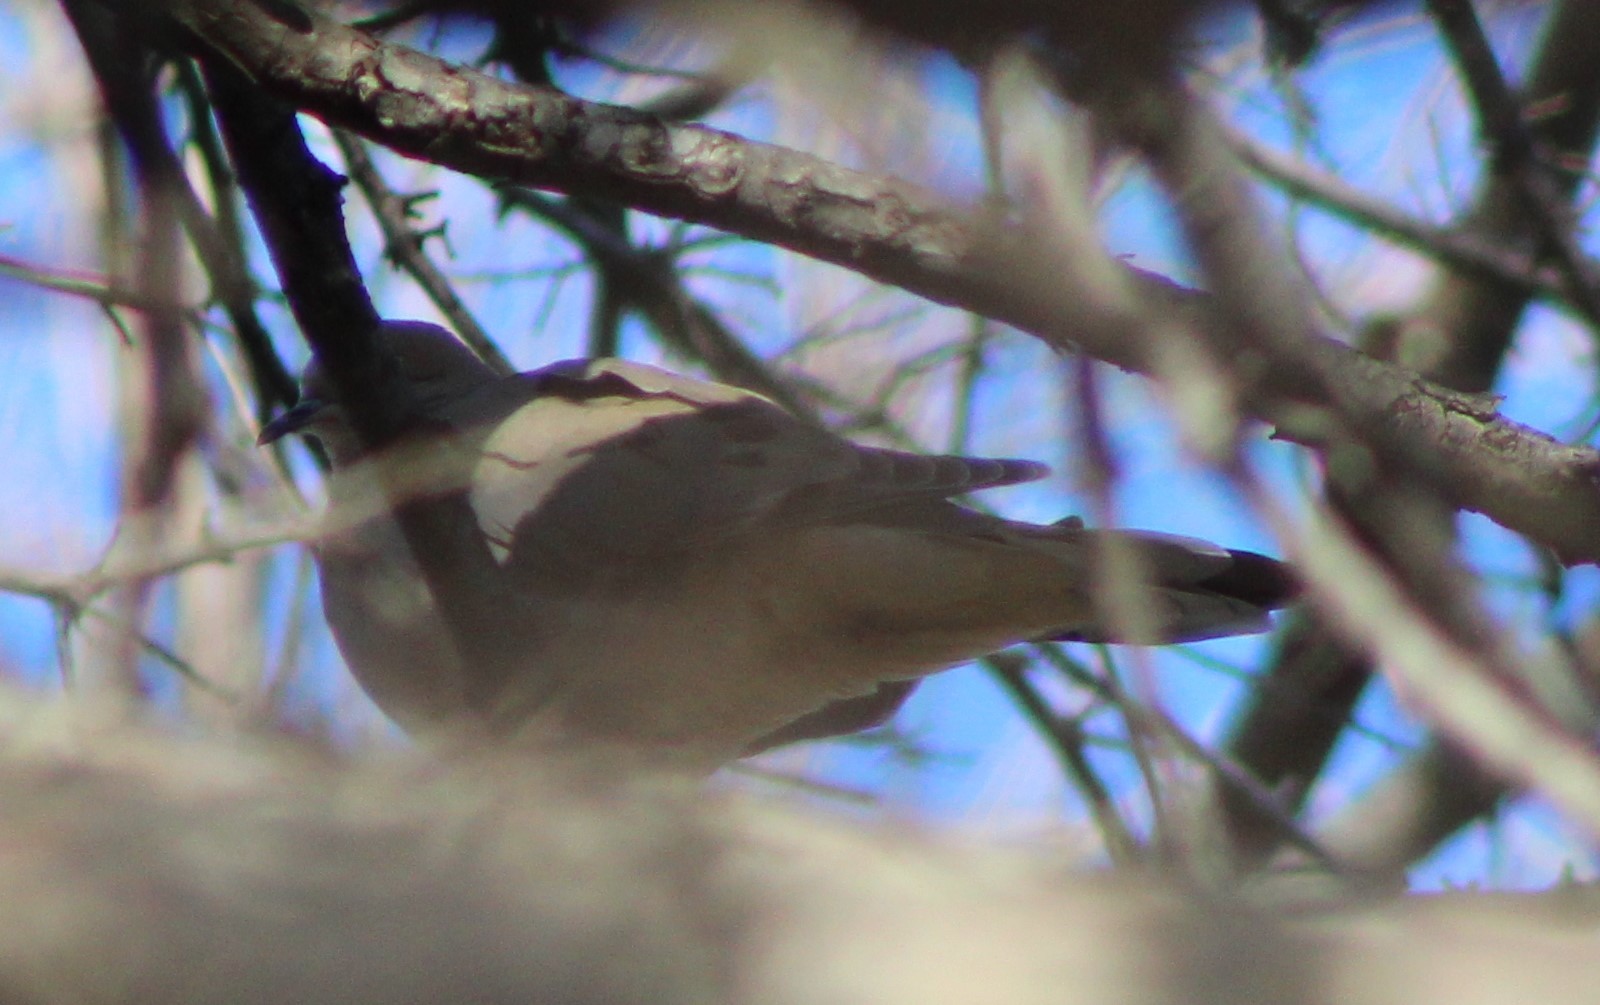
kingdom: Animalia
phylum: Chordata
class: Aves
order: Columbiformes
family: Columbidae
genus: Zenaida
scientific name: Zenaida macroura
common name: Mourning dove
